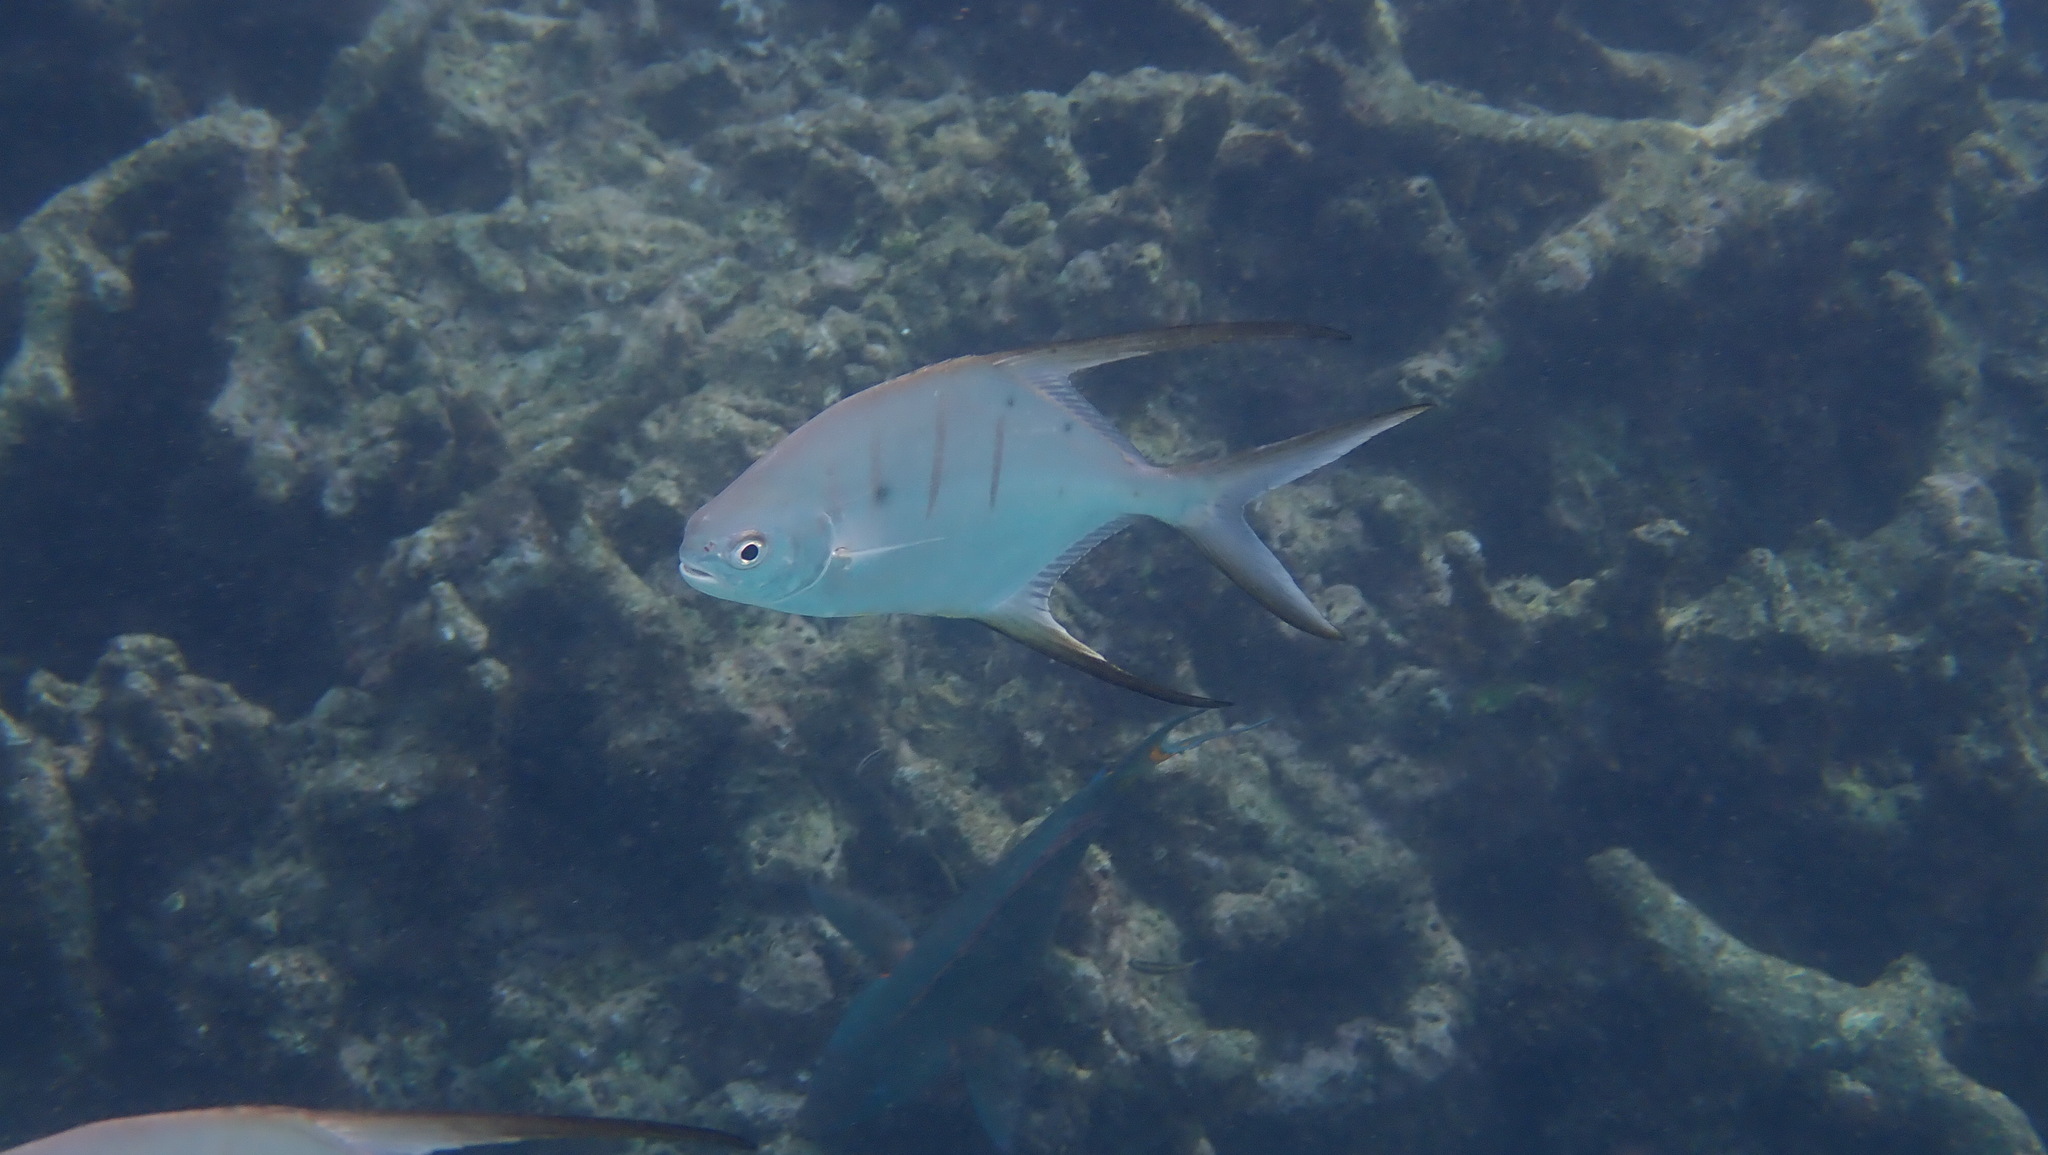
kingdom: Animalia
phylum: Chordata
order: Perciformes
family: Carangidae
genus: Trachinotus
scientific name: Trachinotus goodei
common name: Palometa
